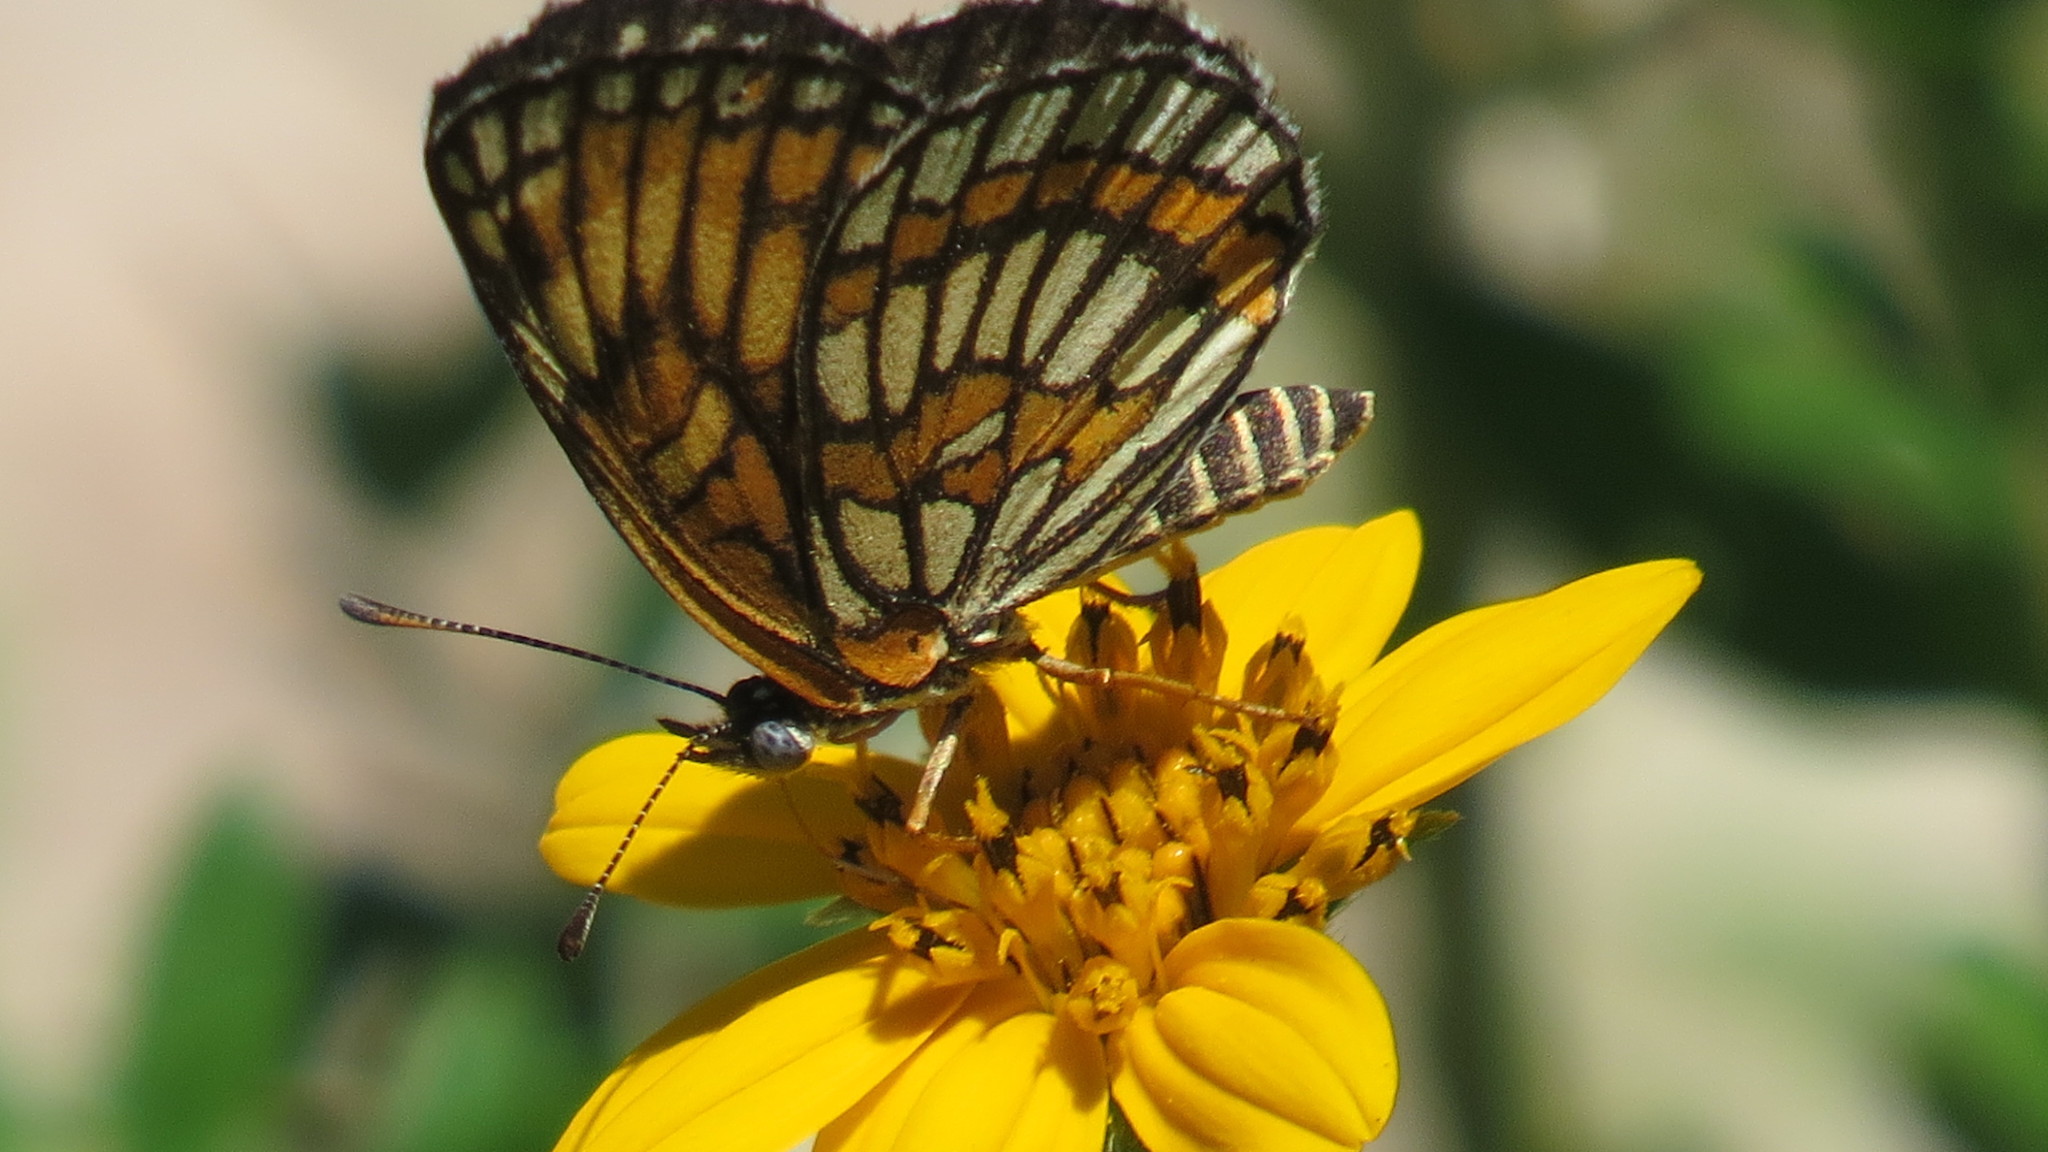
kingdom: Animalia
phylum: Arthropoda
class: Insecta
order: Lepidoptera
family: Nymphalidae
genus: Thessalia
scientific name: Thessalia theona
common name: Nymphalid moth
